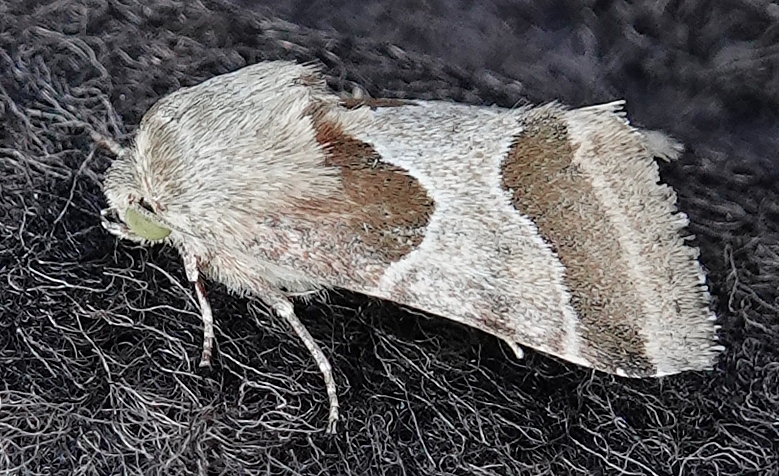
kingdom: Animalia
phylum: Arthropoda
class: Insecta
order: Lepidoptera
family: Noctuidae
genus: Schinia
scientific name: Schinia jaguarina
